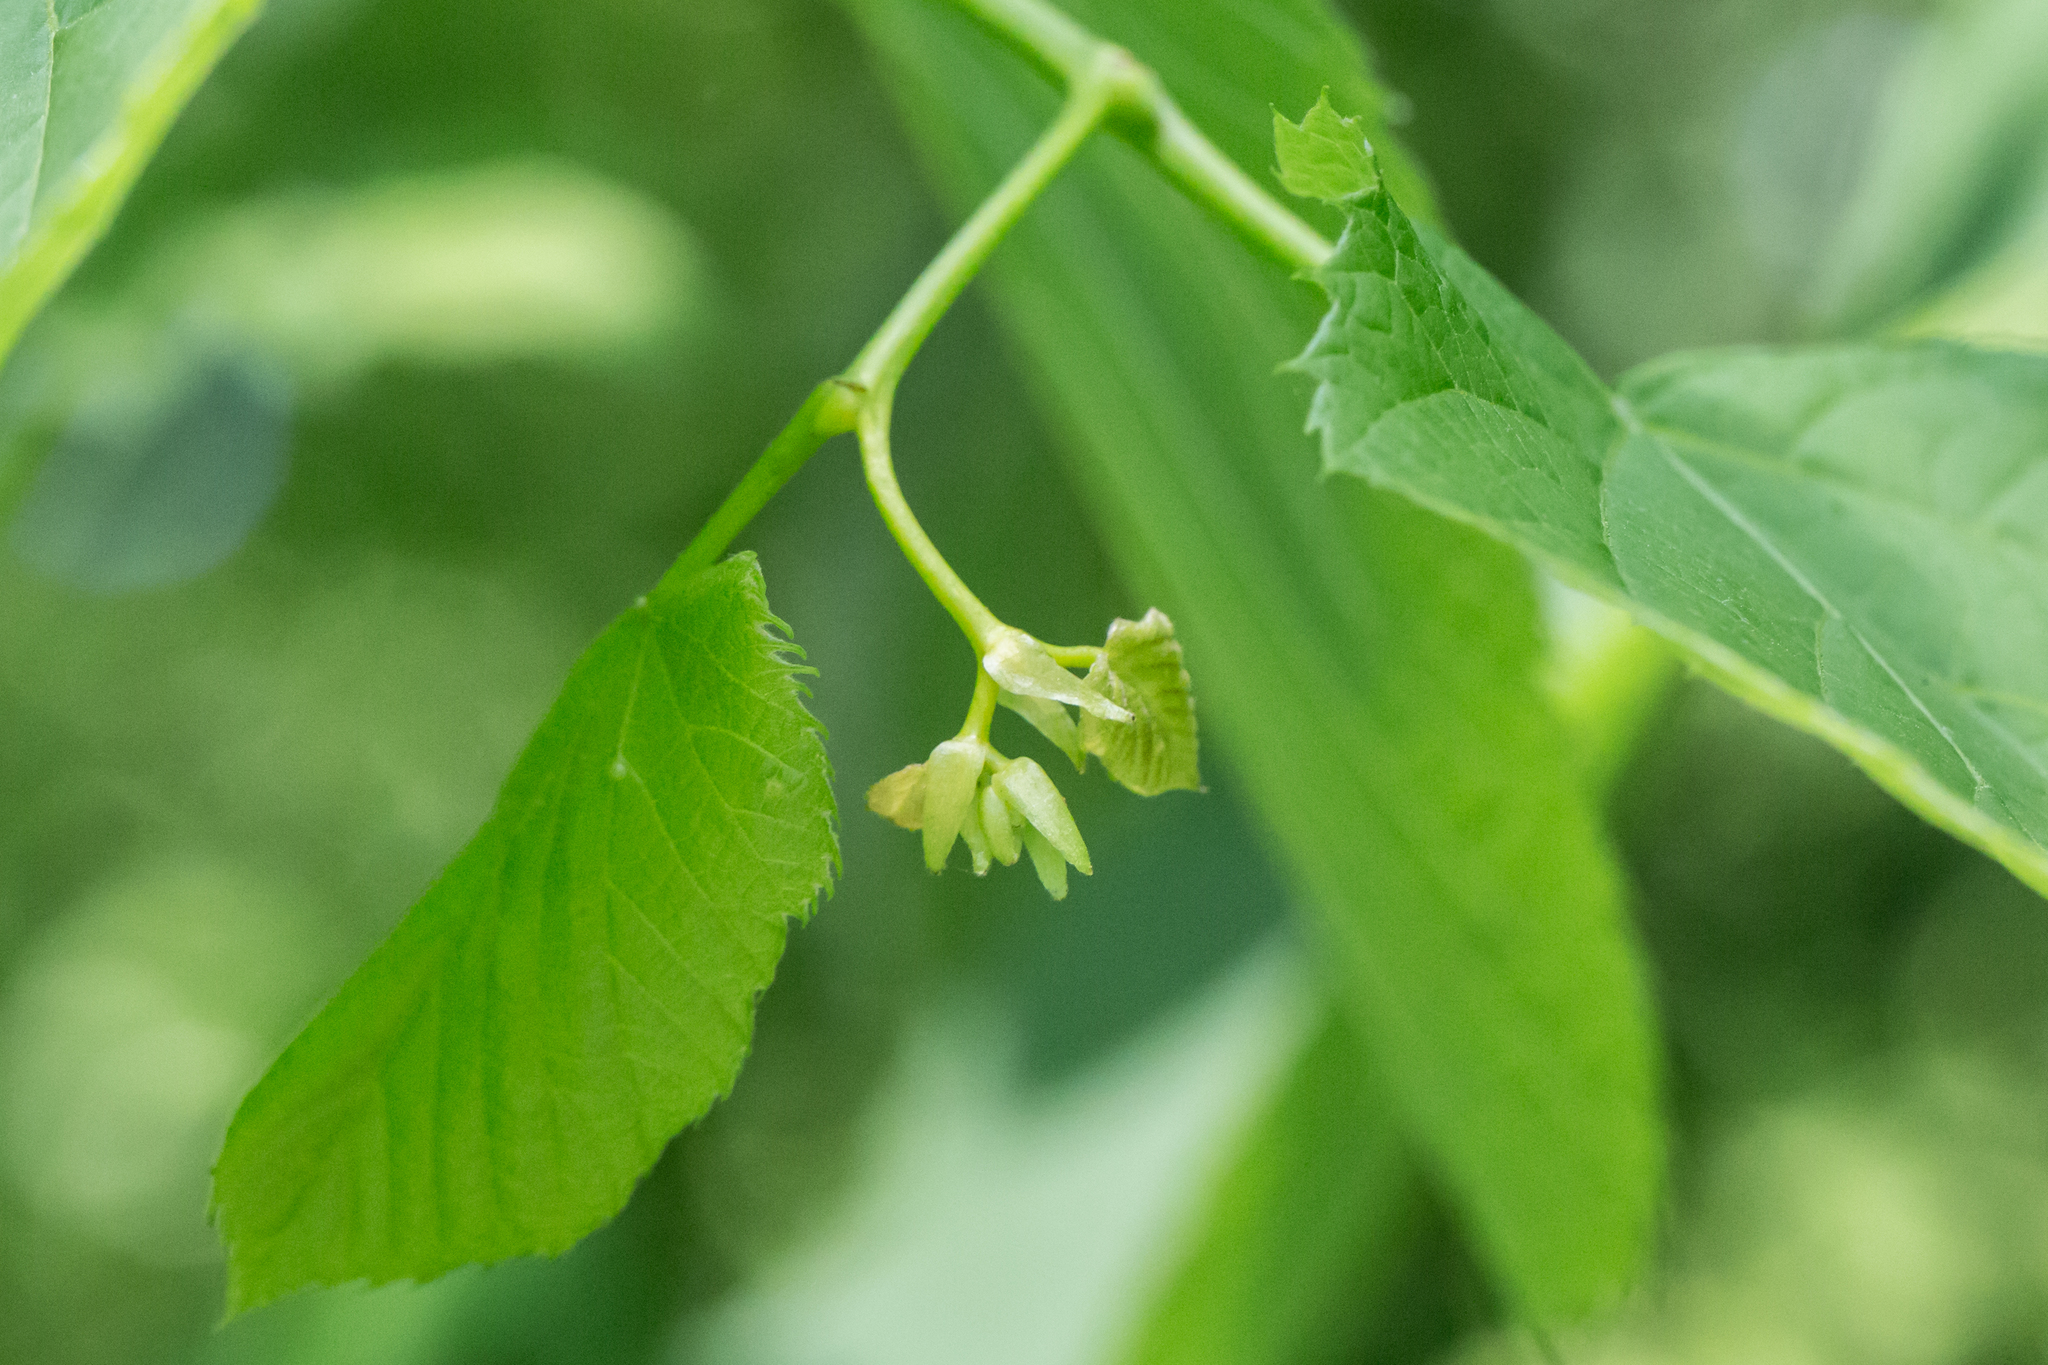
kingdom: Plantae
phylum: Tracheophyta
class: Magnoliopsida
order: Malvales
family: Malvaceae
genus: Tilia
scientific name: Tilia americana
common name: Basswood
